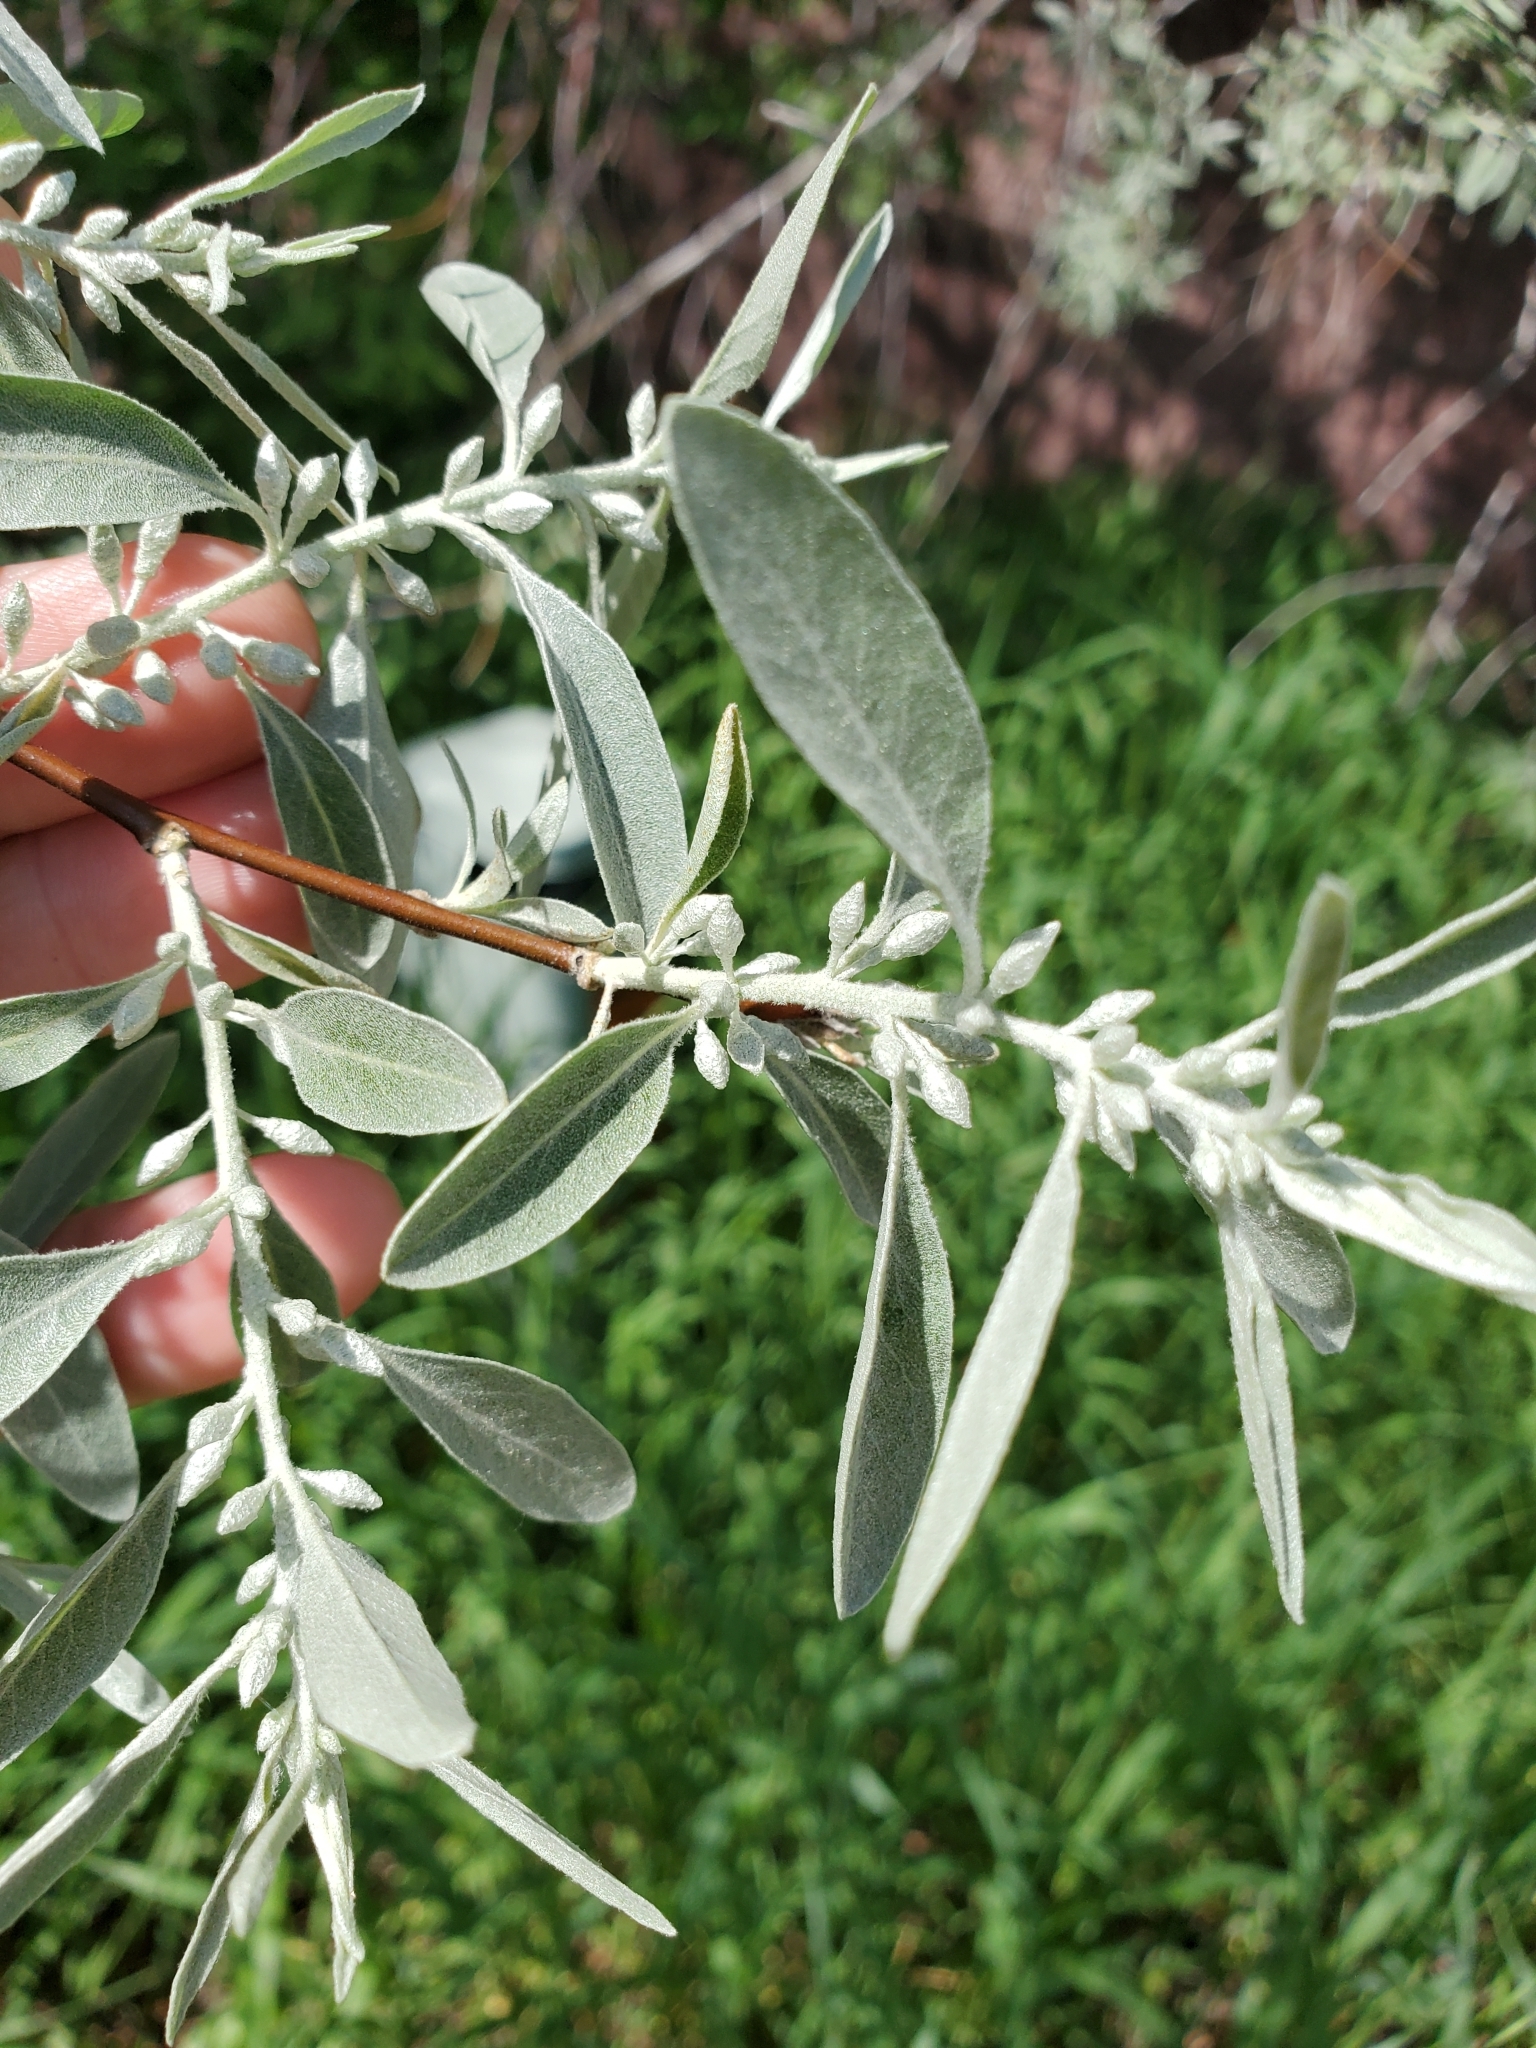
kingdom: Plantae
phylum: Tracheophyta
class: Magnoliopsida
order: Rosales
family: Elaeagnaceae
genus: Elaeagnus
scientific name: Elaeagnus angustifolia
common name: Russian olive
